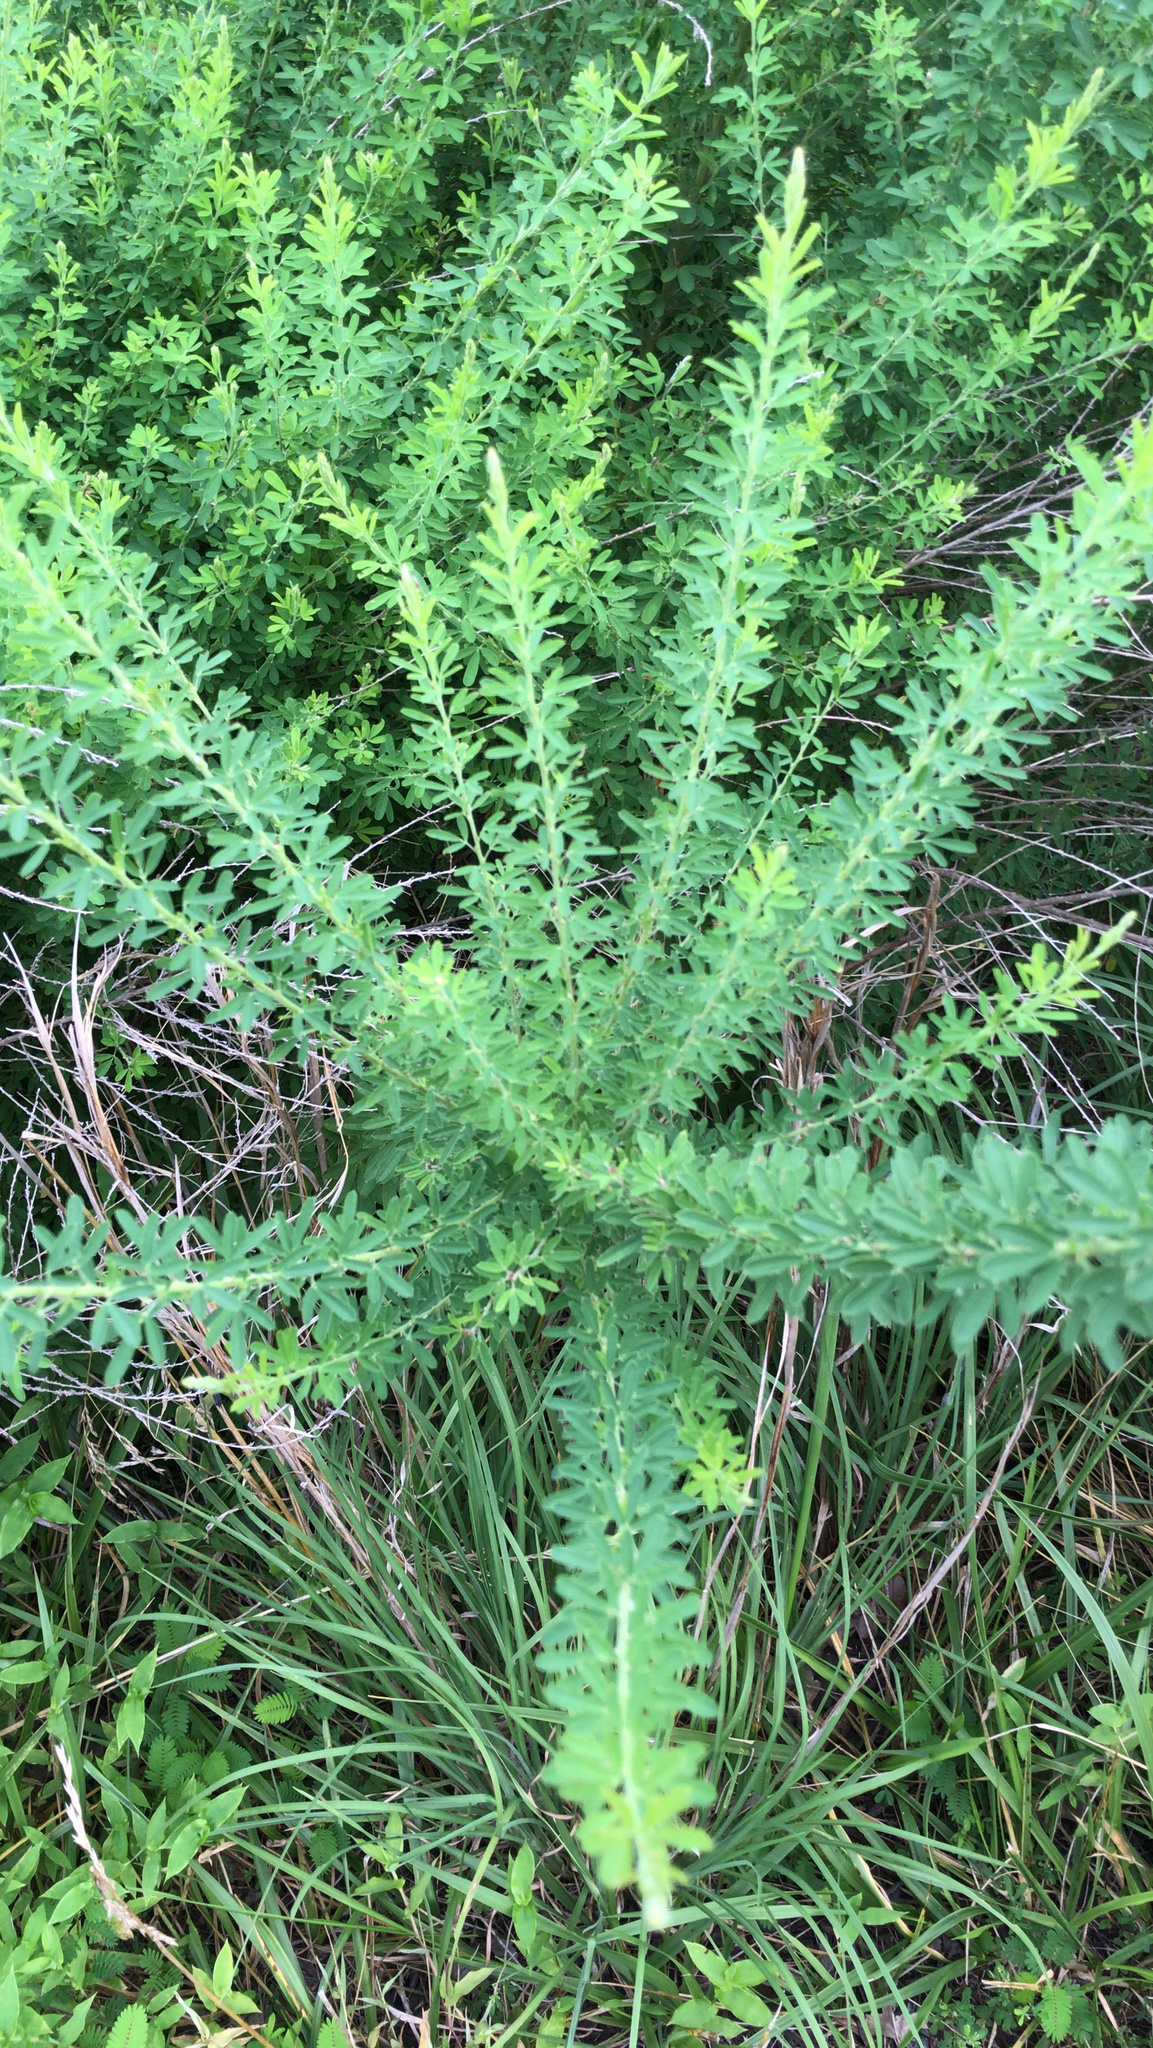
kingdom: Plantae
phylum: Tracheophyta
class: Magnoliopsida
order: Fabales
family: Fabaceae
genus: Lespedeza
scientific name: Lespedeza cuneata
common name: Chinese bush-clover
